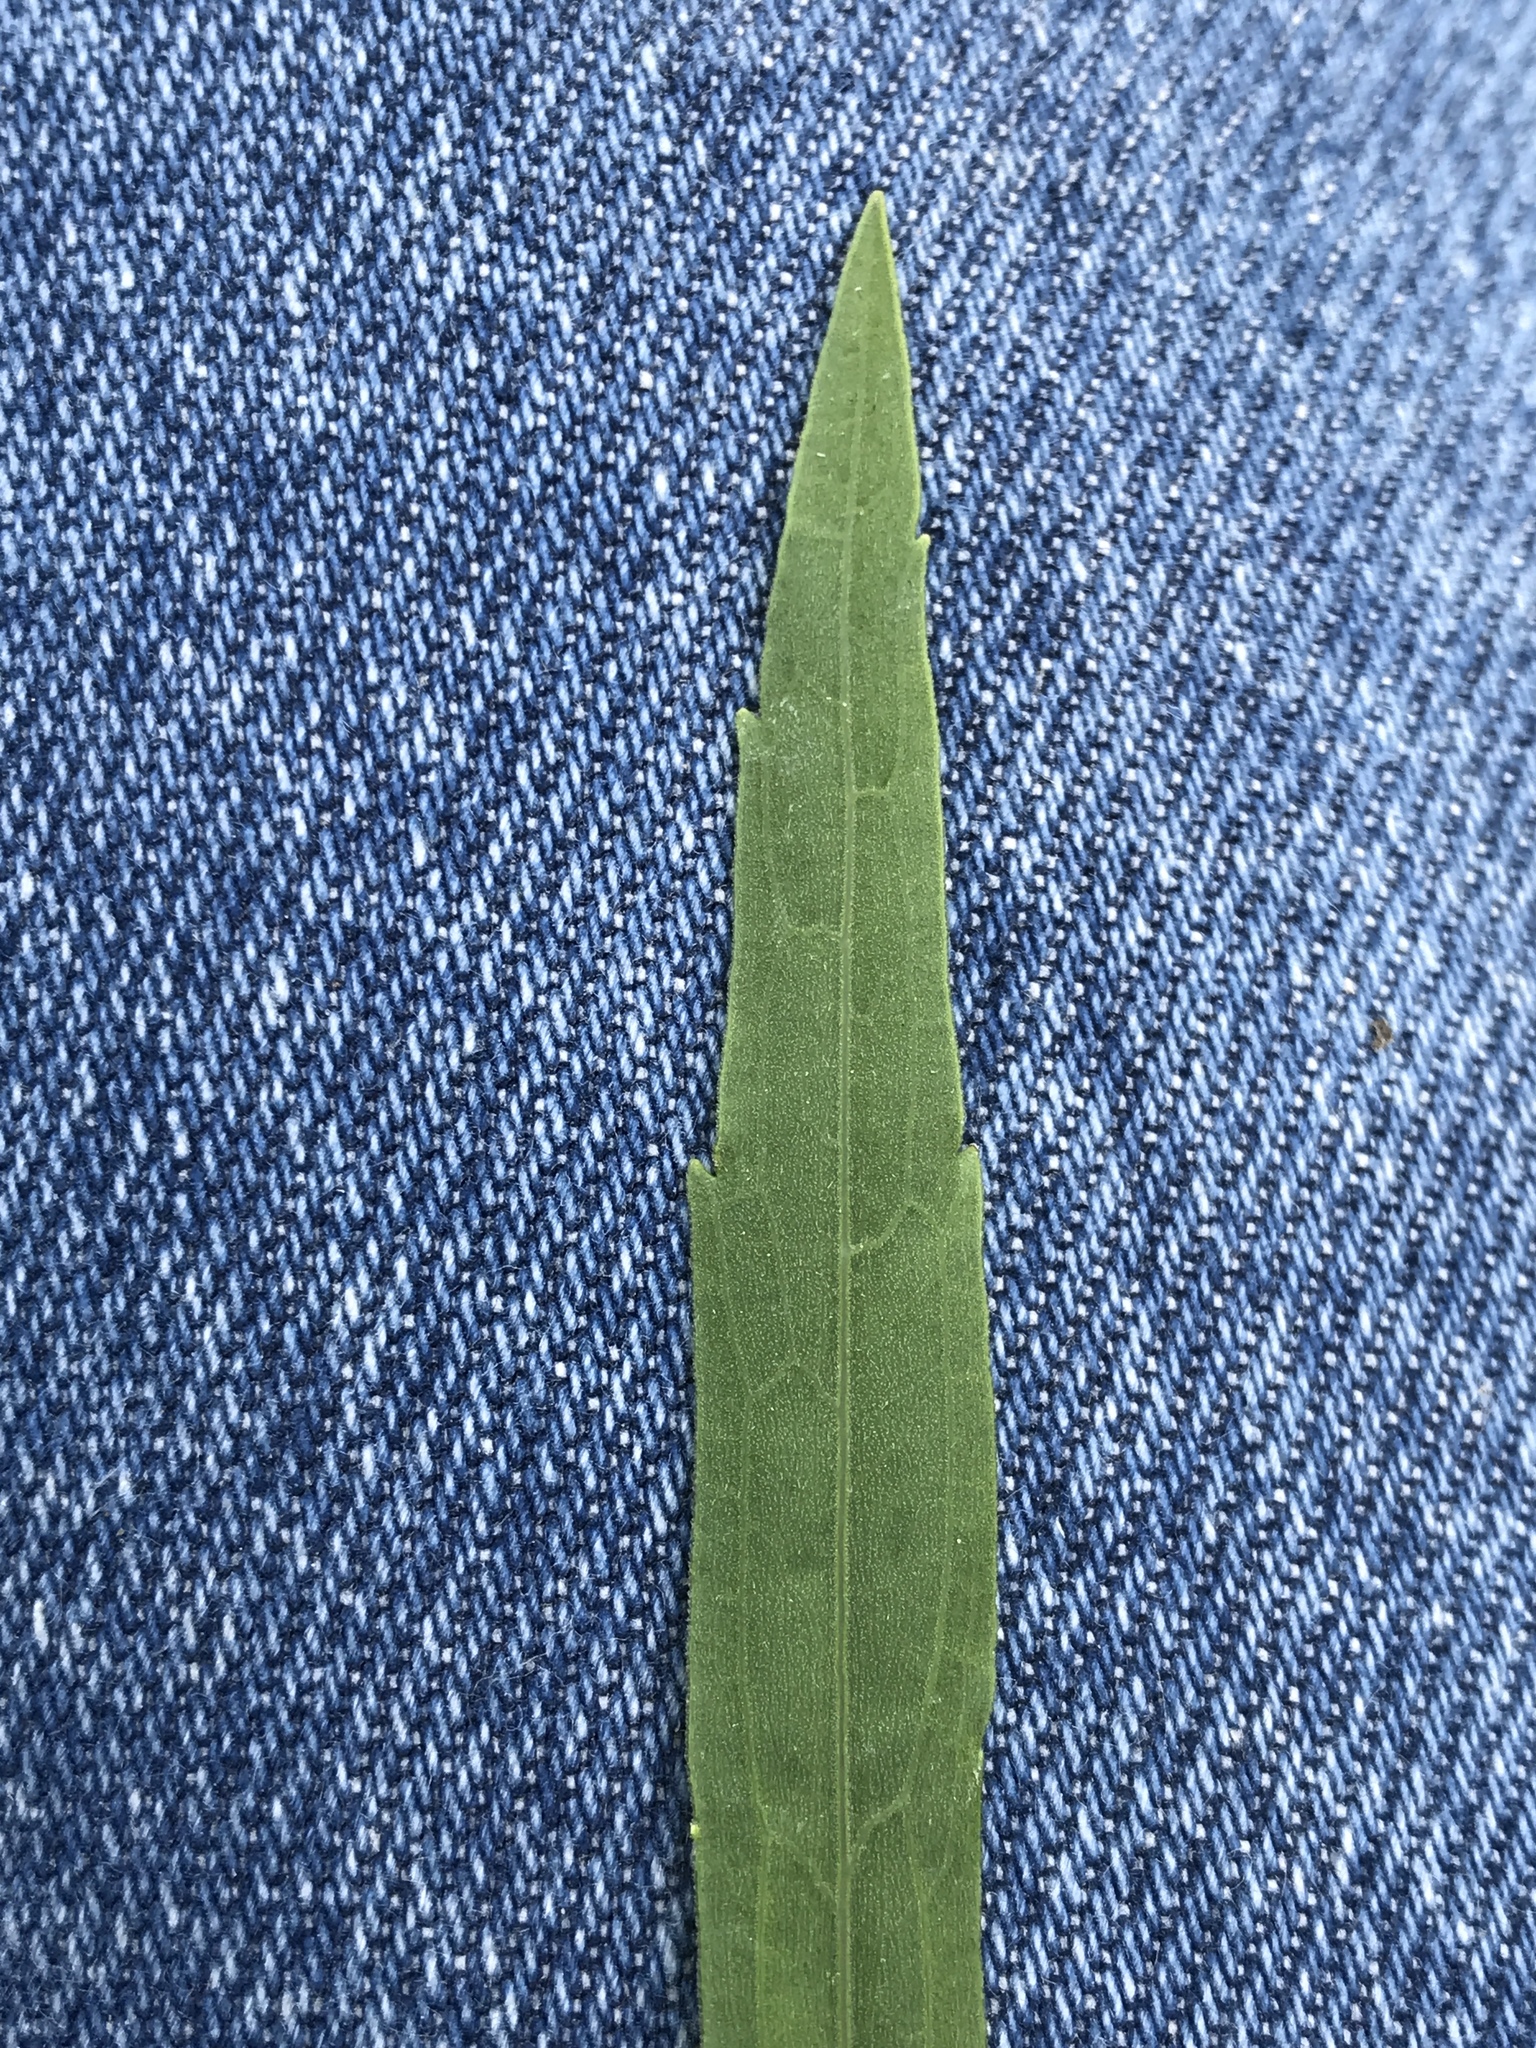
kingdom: Plantae
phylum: Tracheophyta
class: Magnoliopsida
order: Asterales
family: Asteraceae
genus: Solidago
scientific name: Solidago ptarmicoides
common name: White flat-top goldenrod
